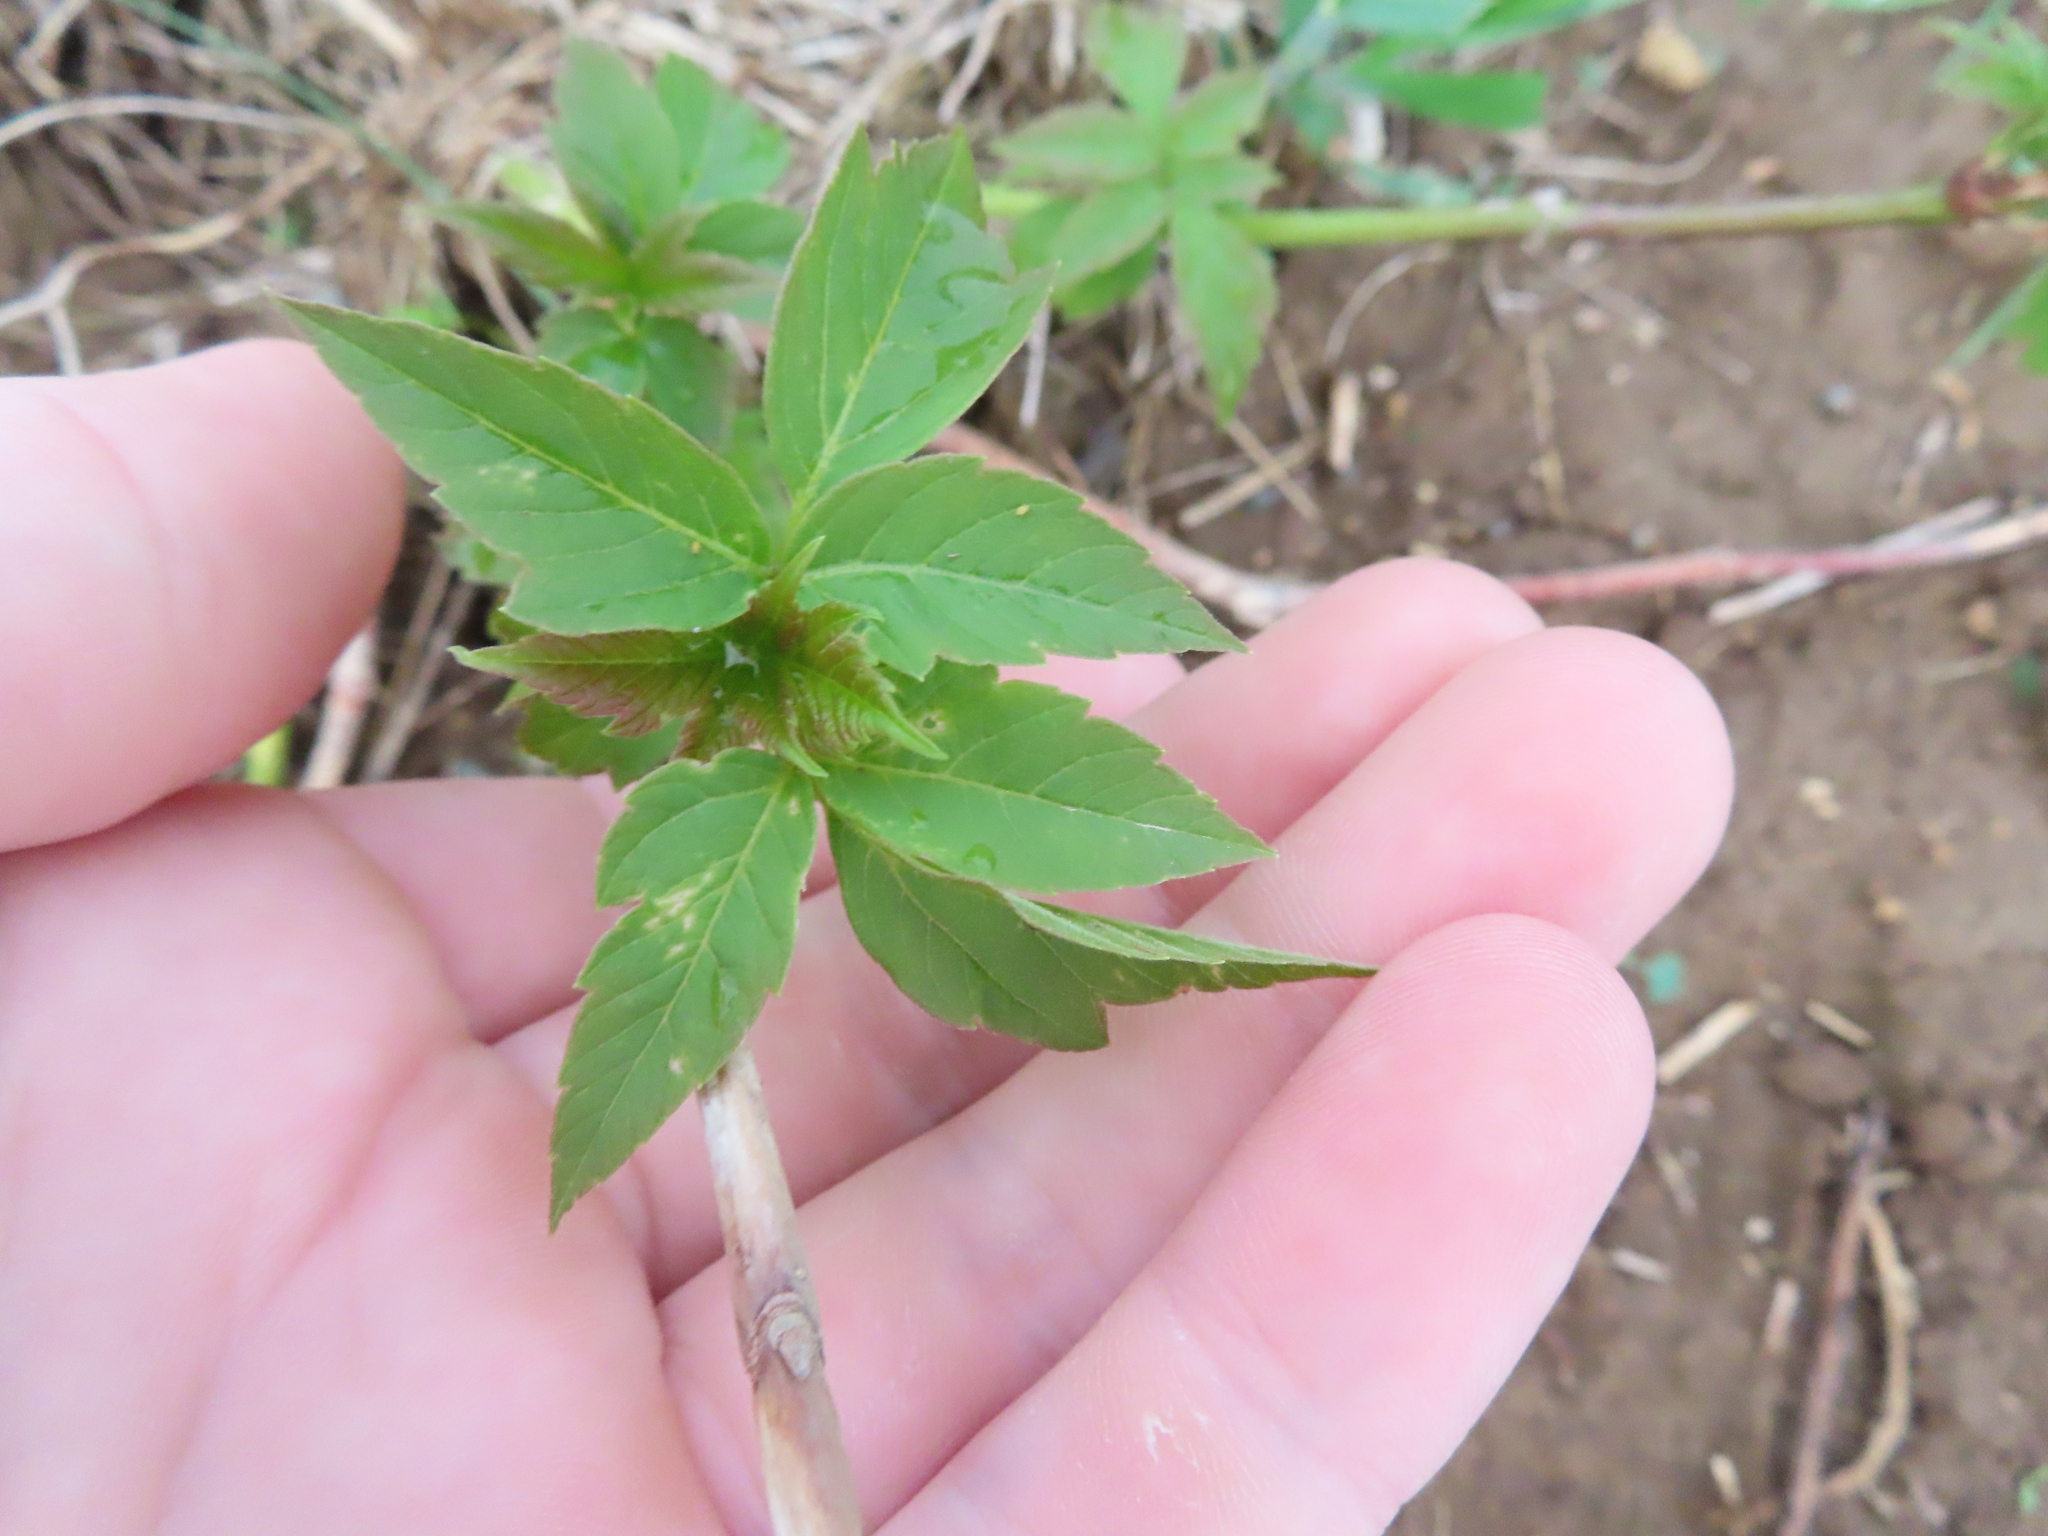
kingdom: Plantae
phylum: Tracheophyta
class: Magnoliopsida
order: Sapindales
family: Sapindaceae
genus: Acer
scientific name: Acer negundo
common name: Ashleaf maple
